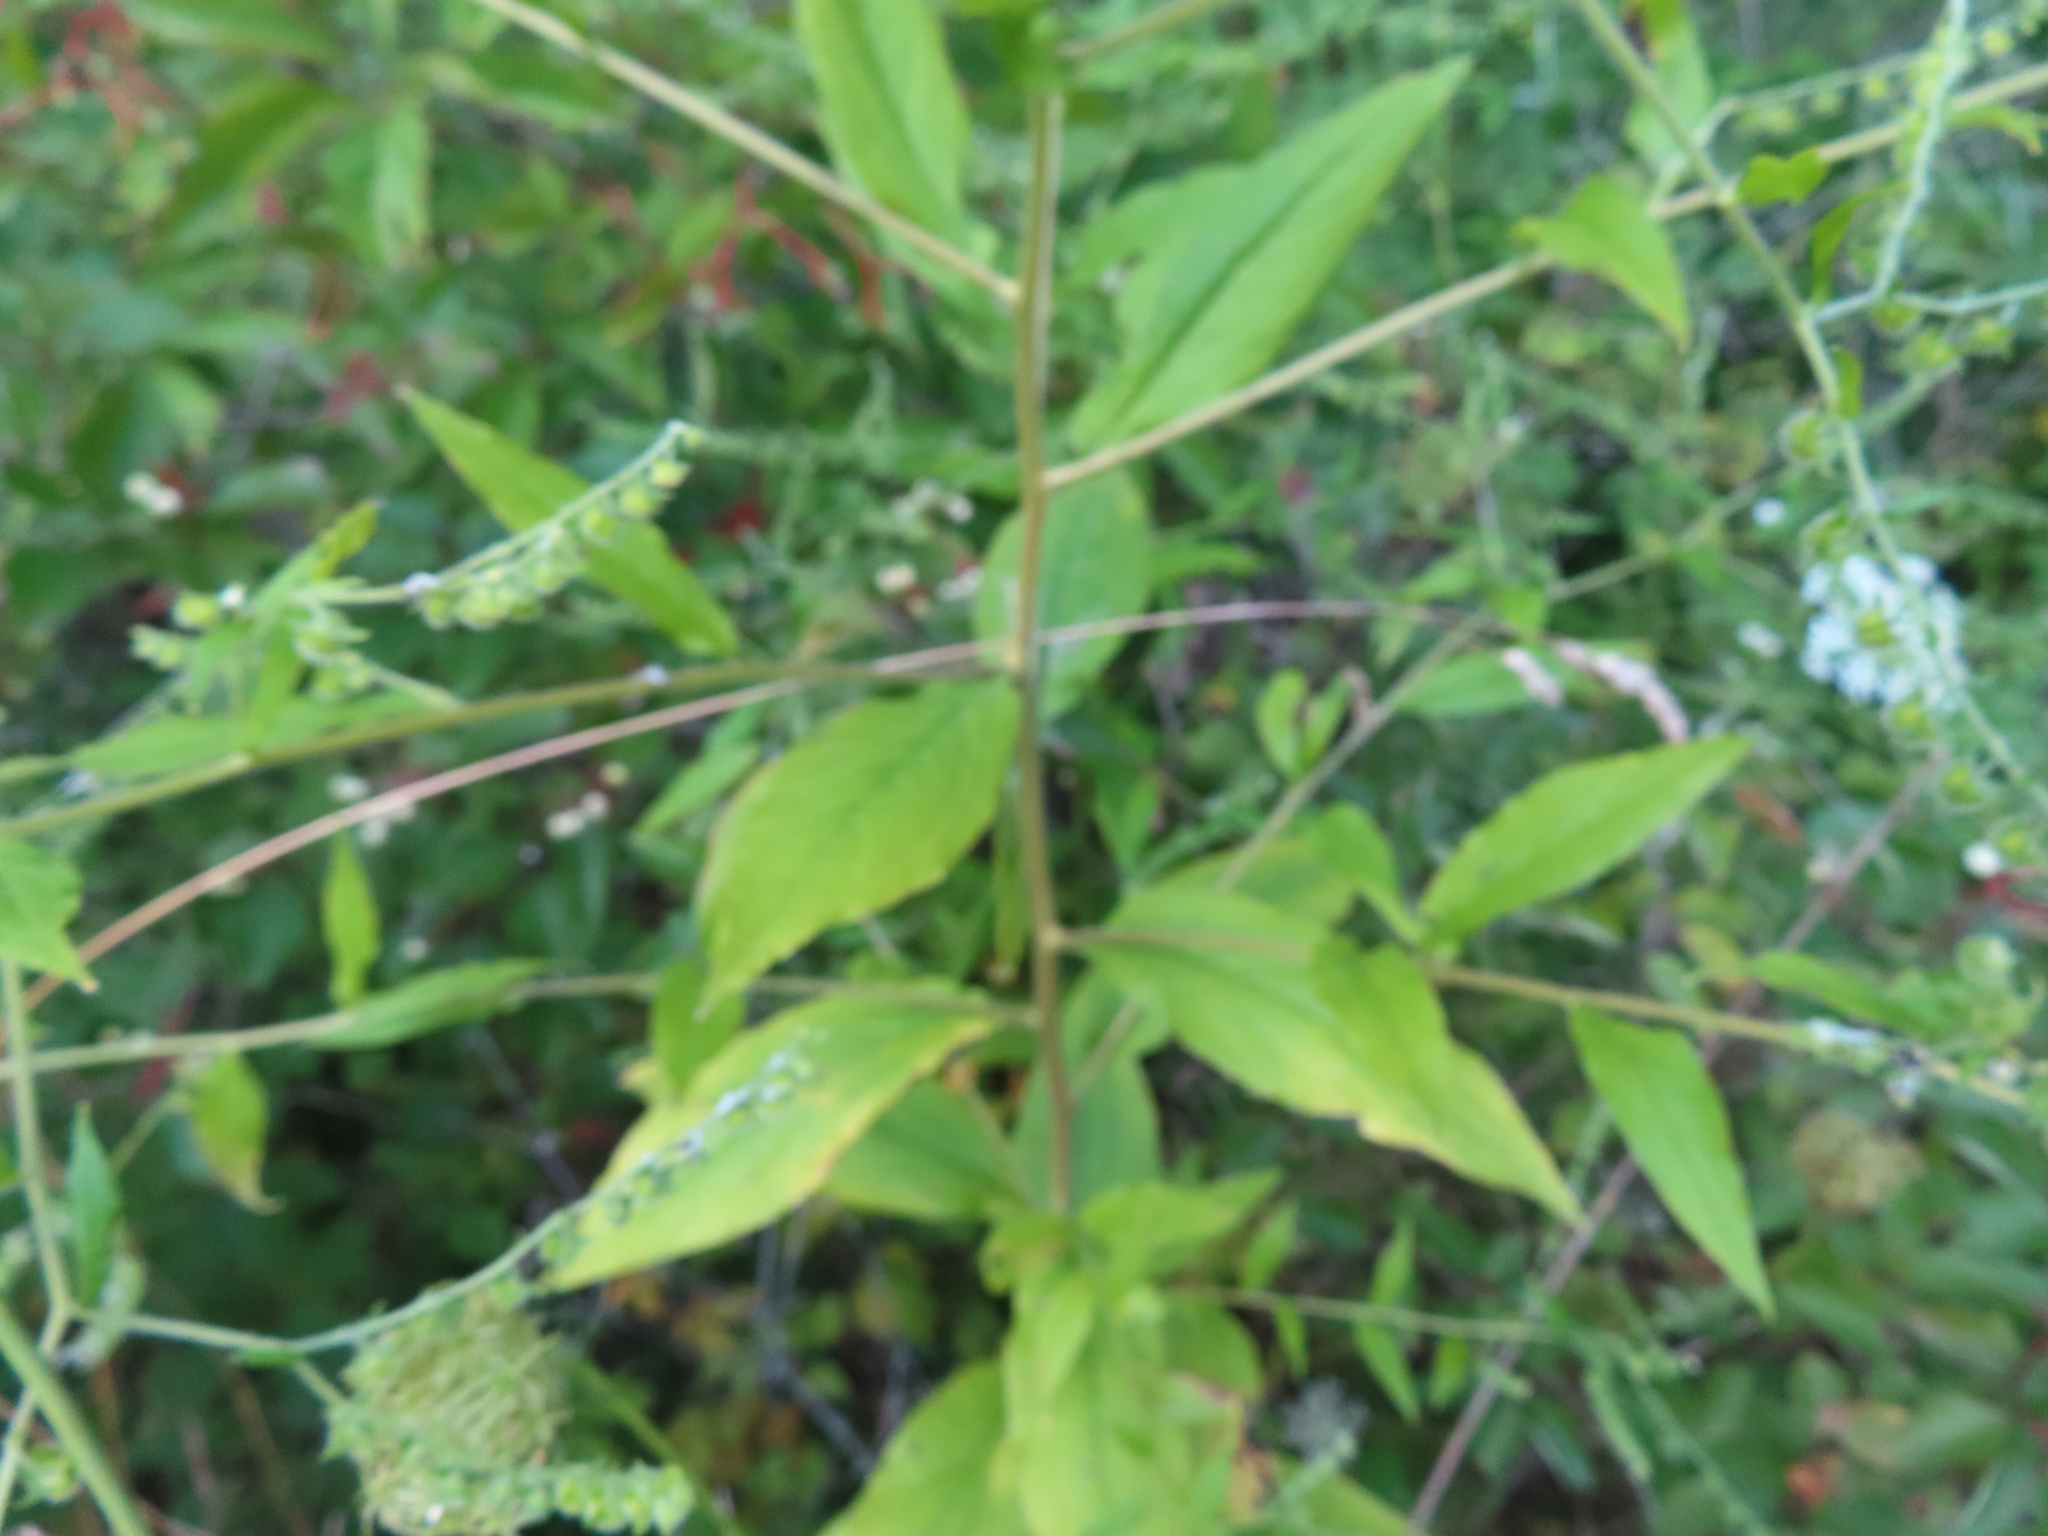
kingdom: Plantae
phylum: Tracheophyta
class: Magnoliopsida
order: Boraginales
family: Boraginaceae
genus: Hackelia
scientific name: Hackelia virginiana
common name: Beggar's-lice
